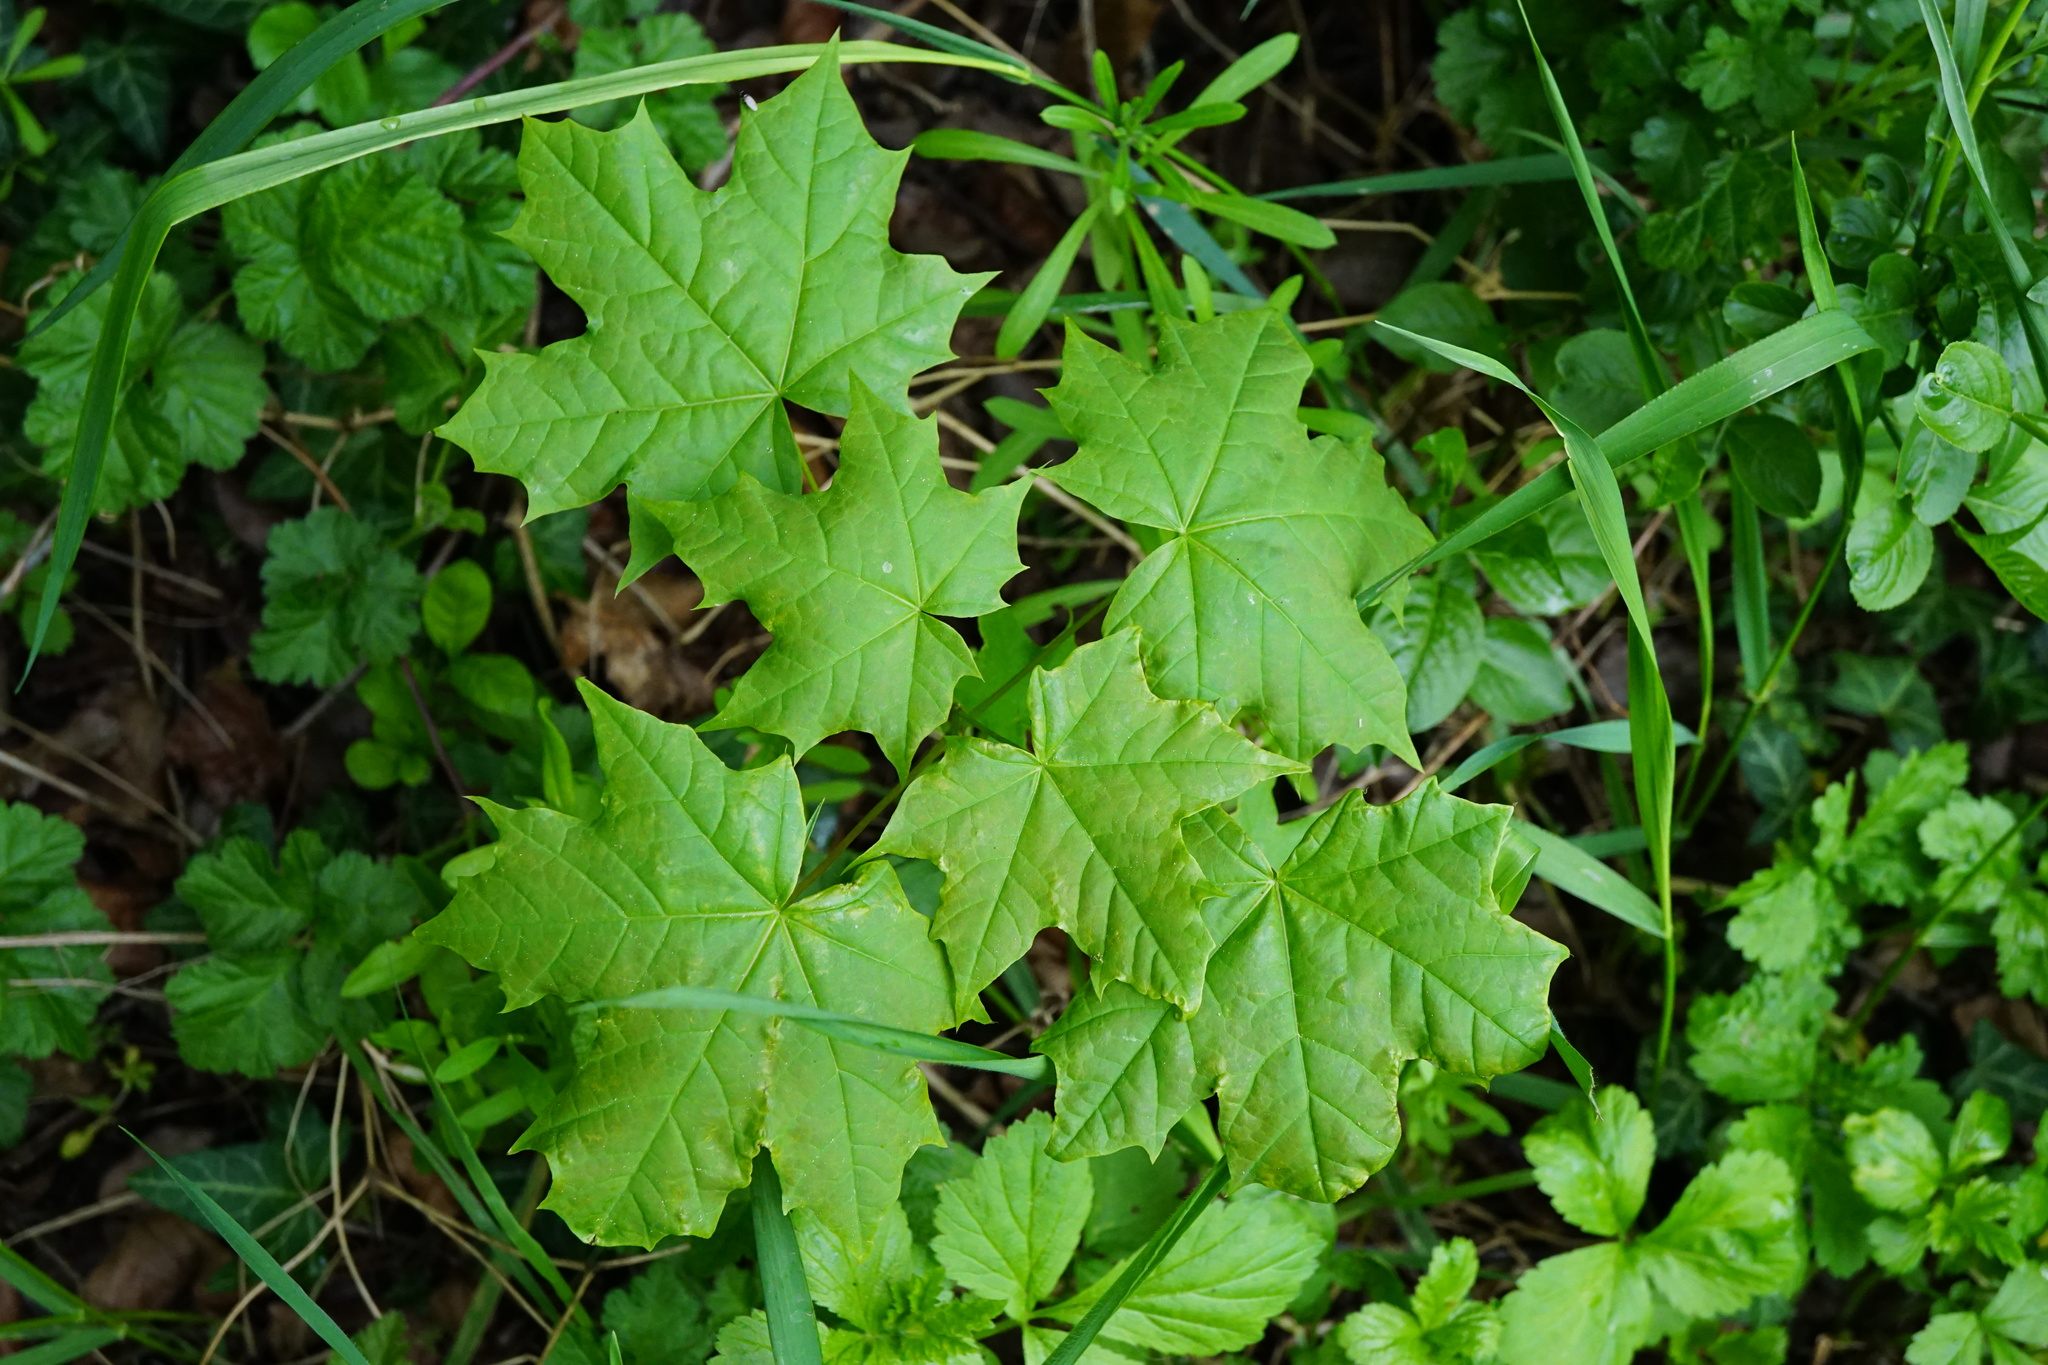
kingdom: Plantae
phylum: Tracheophyta
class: Magnoliopsida
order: Sapindales
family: Sapindaceae
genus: Acer
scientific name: Acer platanoides
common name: Norway maple
